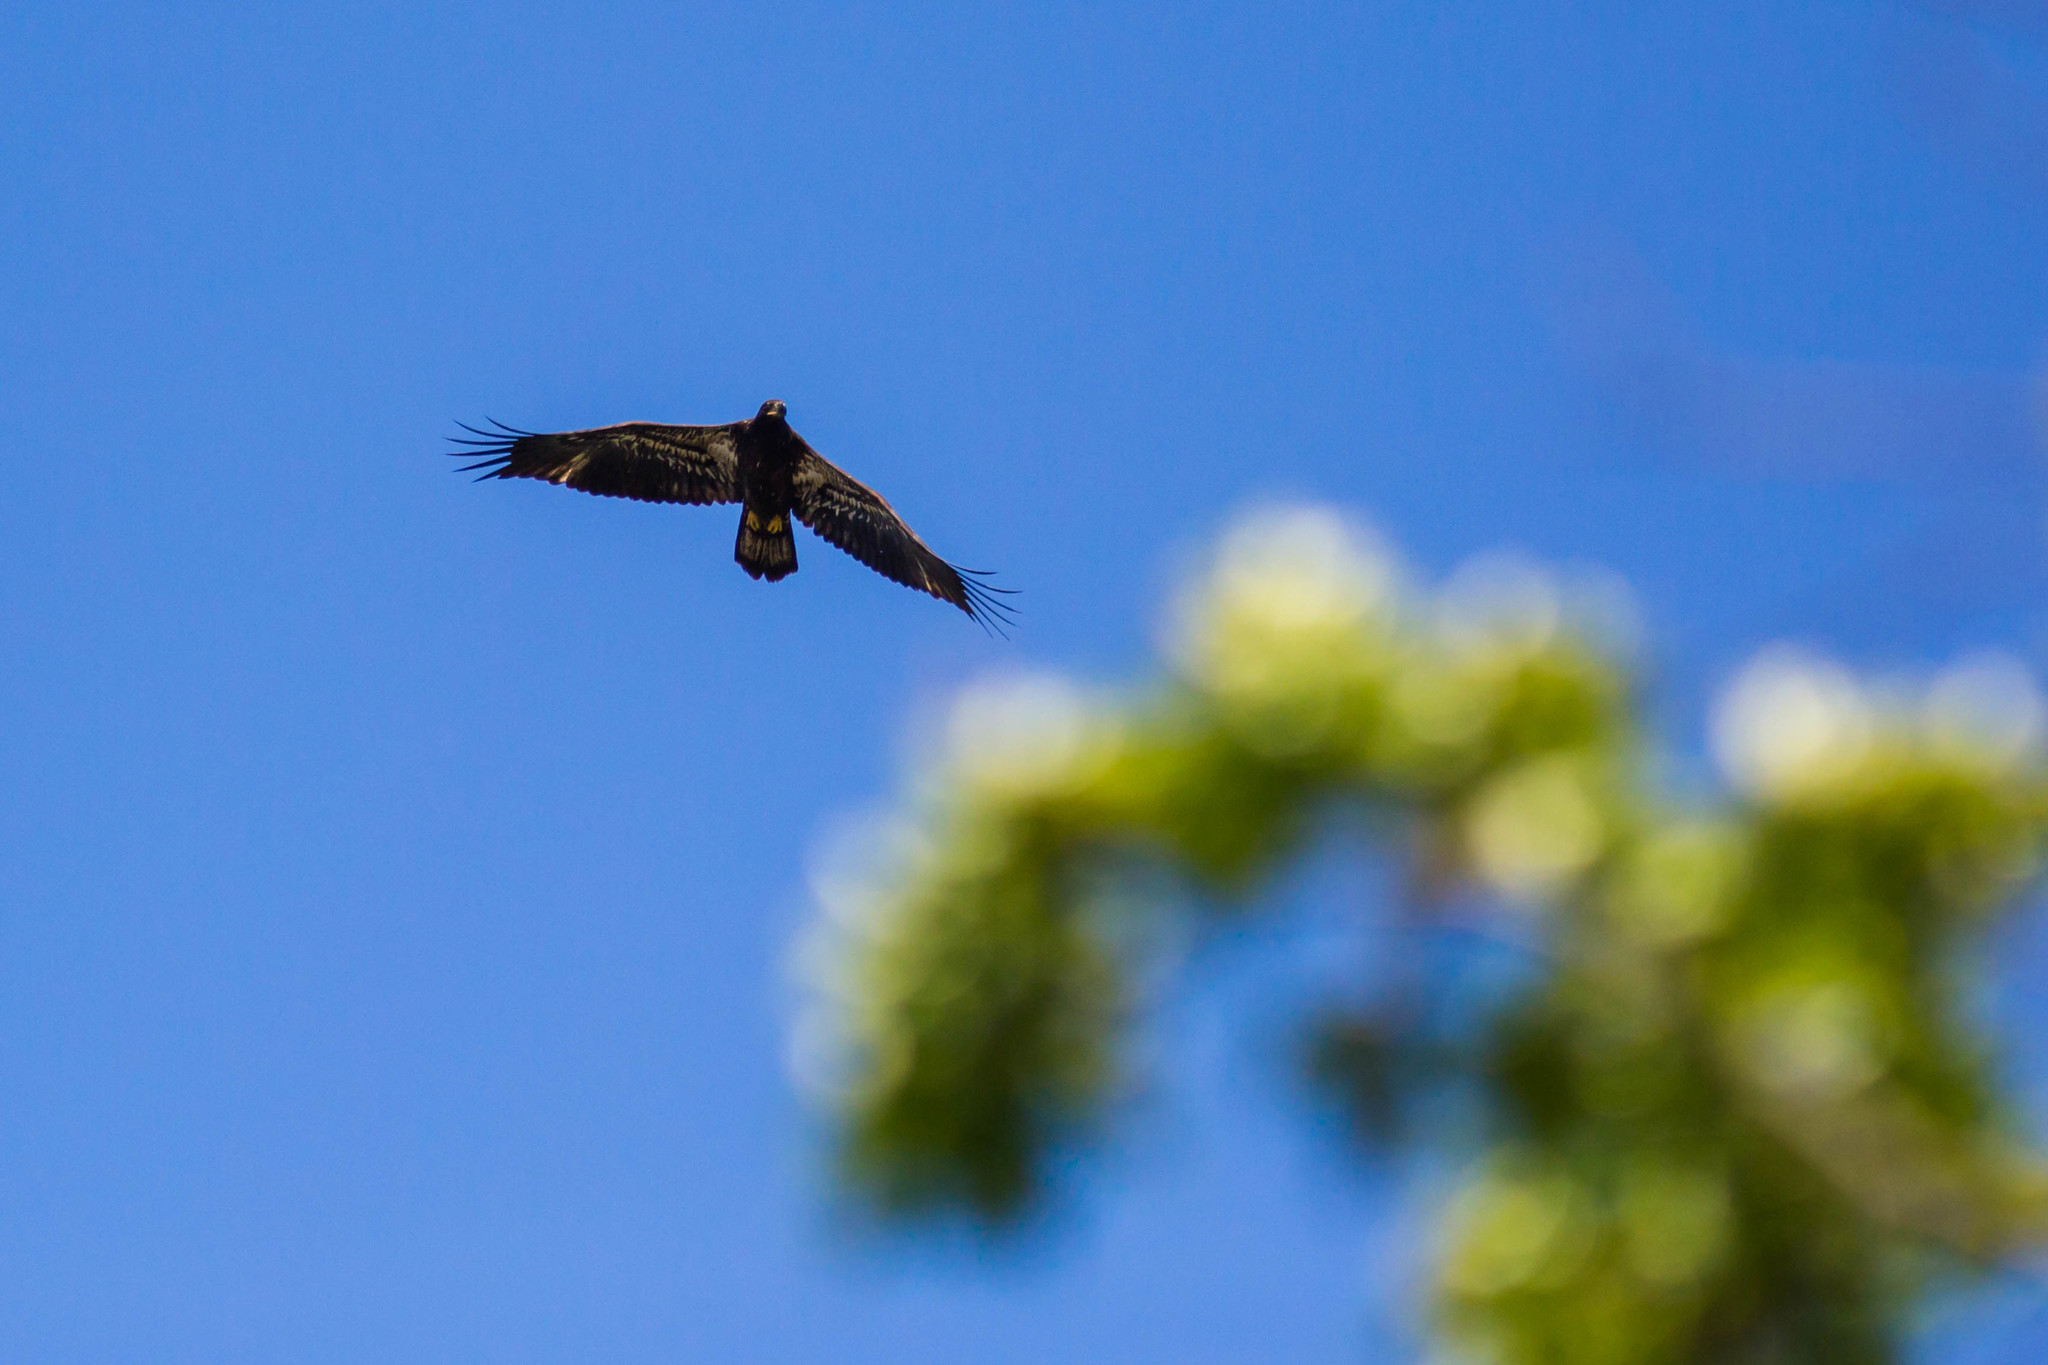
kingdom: Animalia
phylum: Chordata
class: Aves
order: Accipitriformes
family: Accipitridae
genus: Haliaeetus
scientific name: Haliaeetus leucocephalus
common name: Bald eagle
